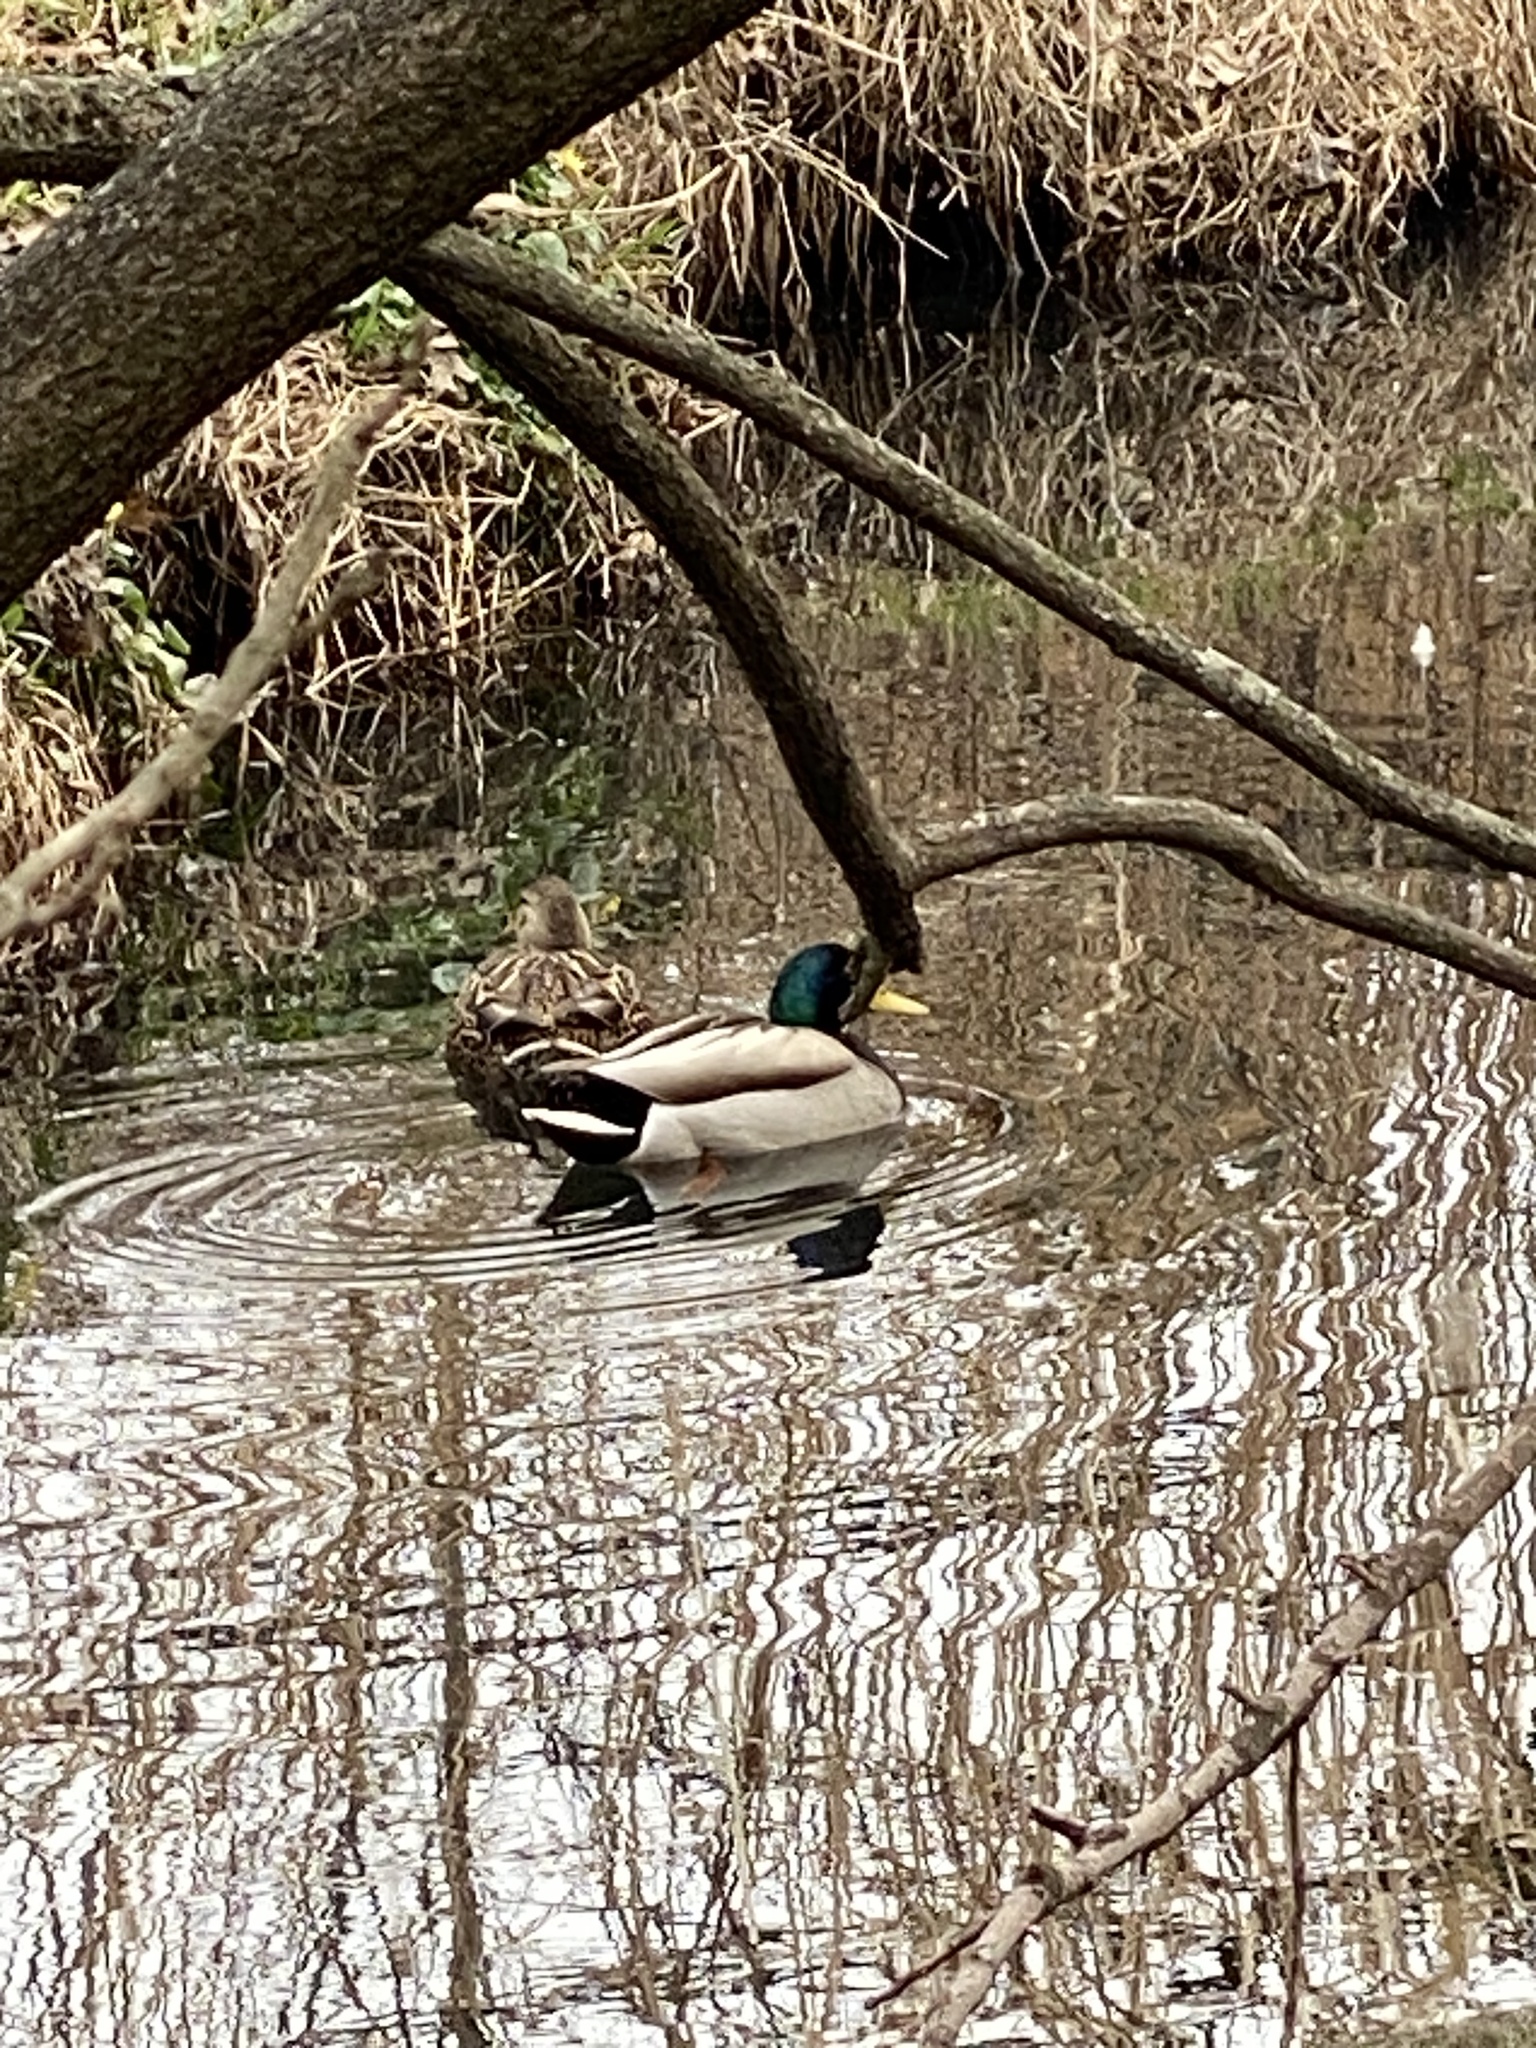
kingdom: Animalia
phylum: Chordata
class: Aves
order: Anseriformes
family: Anatidae
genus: Anas
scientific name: Anas platyrhynchos
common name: Mallard
